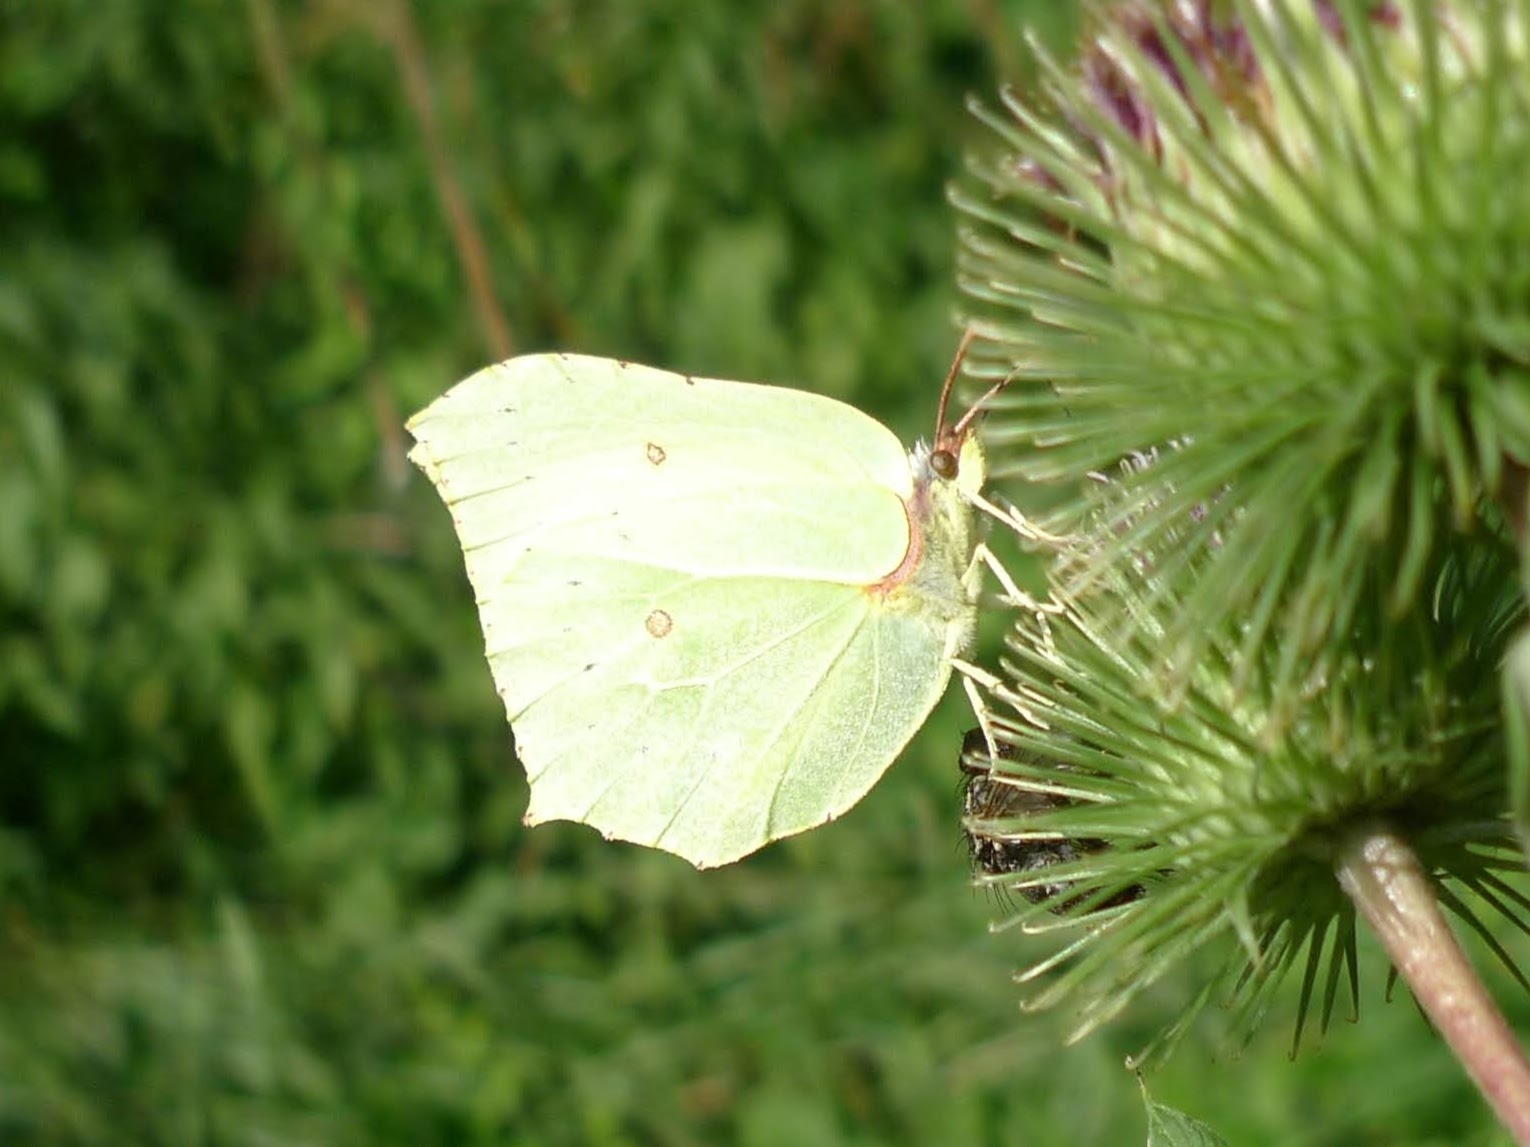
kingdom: Animalia
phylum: Arthropoda
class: Insecta
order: Lepidoptera
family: Pieridae
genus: Gonepteryx
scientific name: Gonepteryx rhamni
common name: Brimstone
